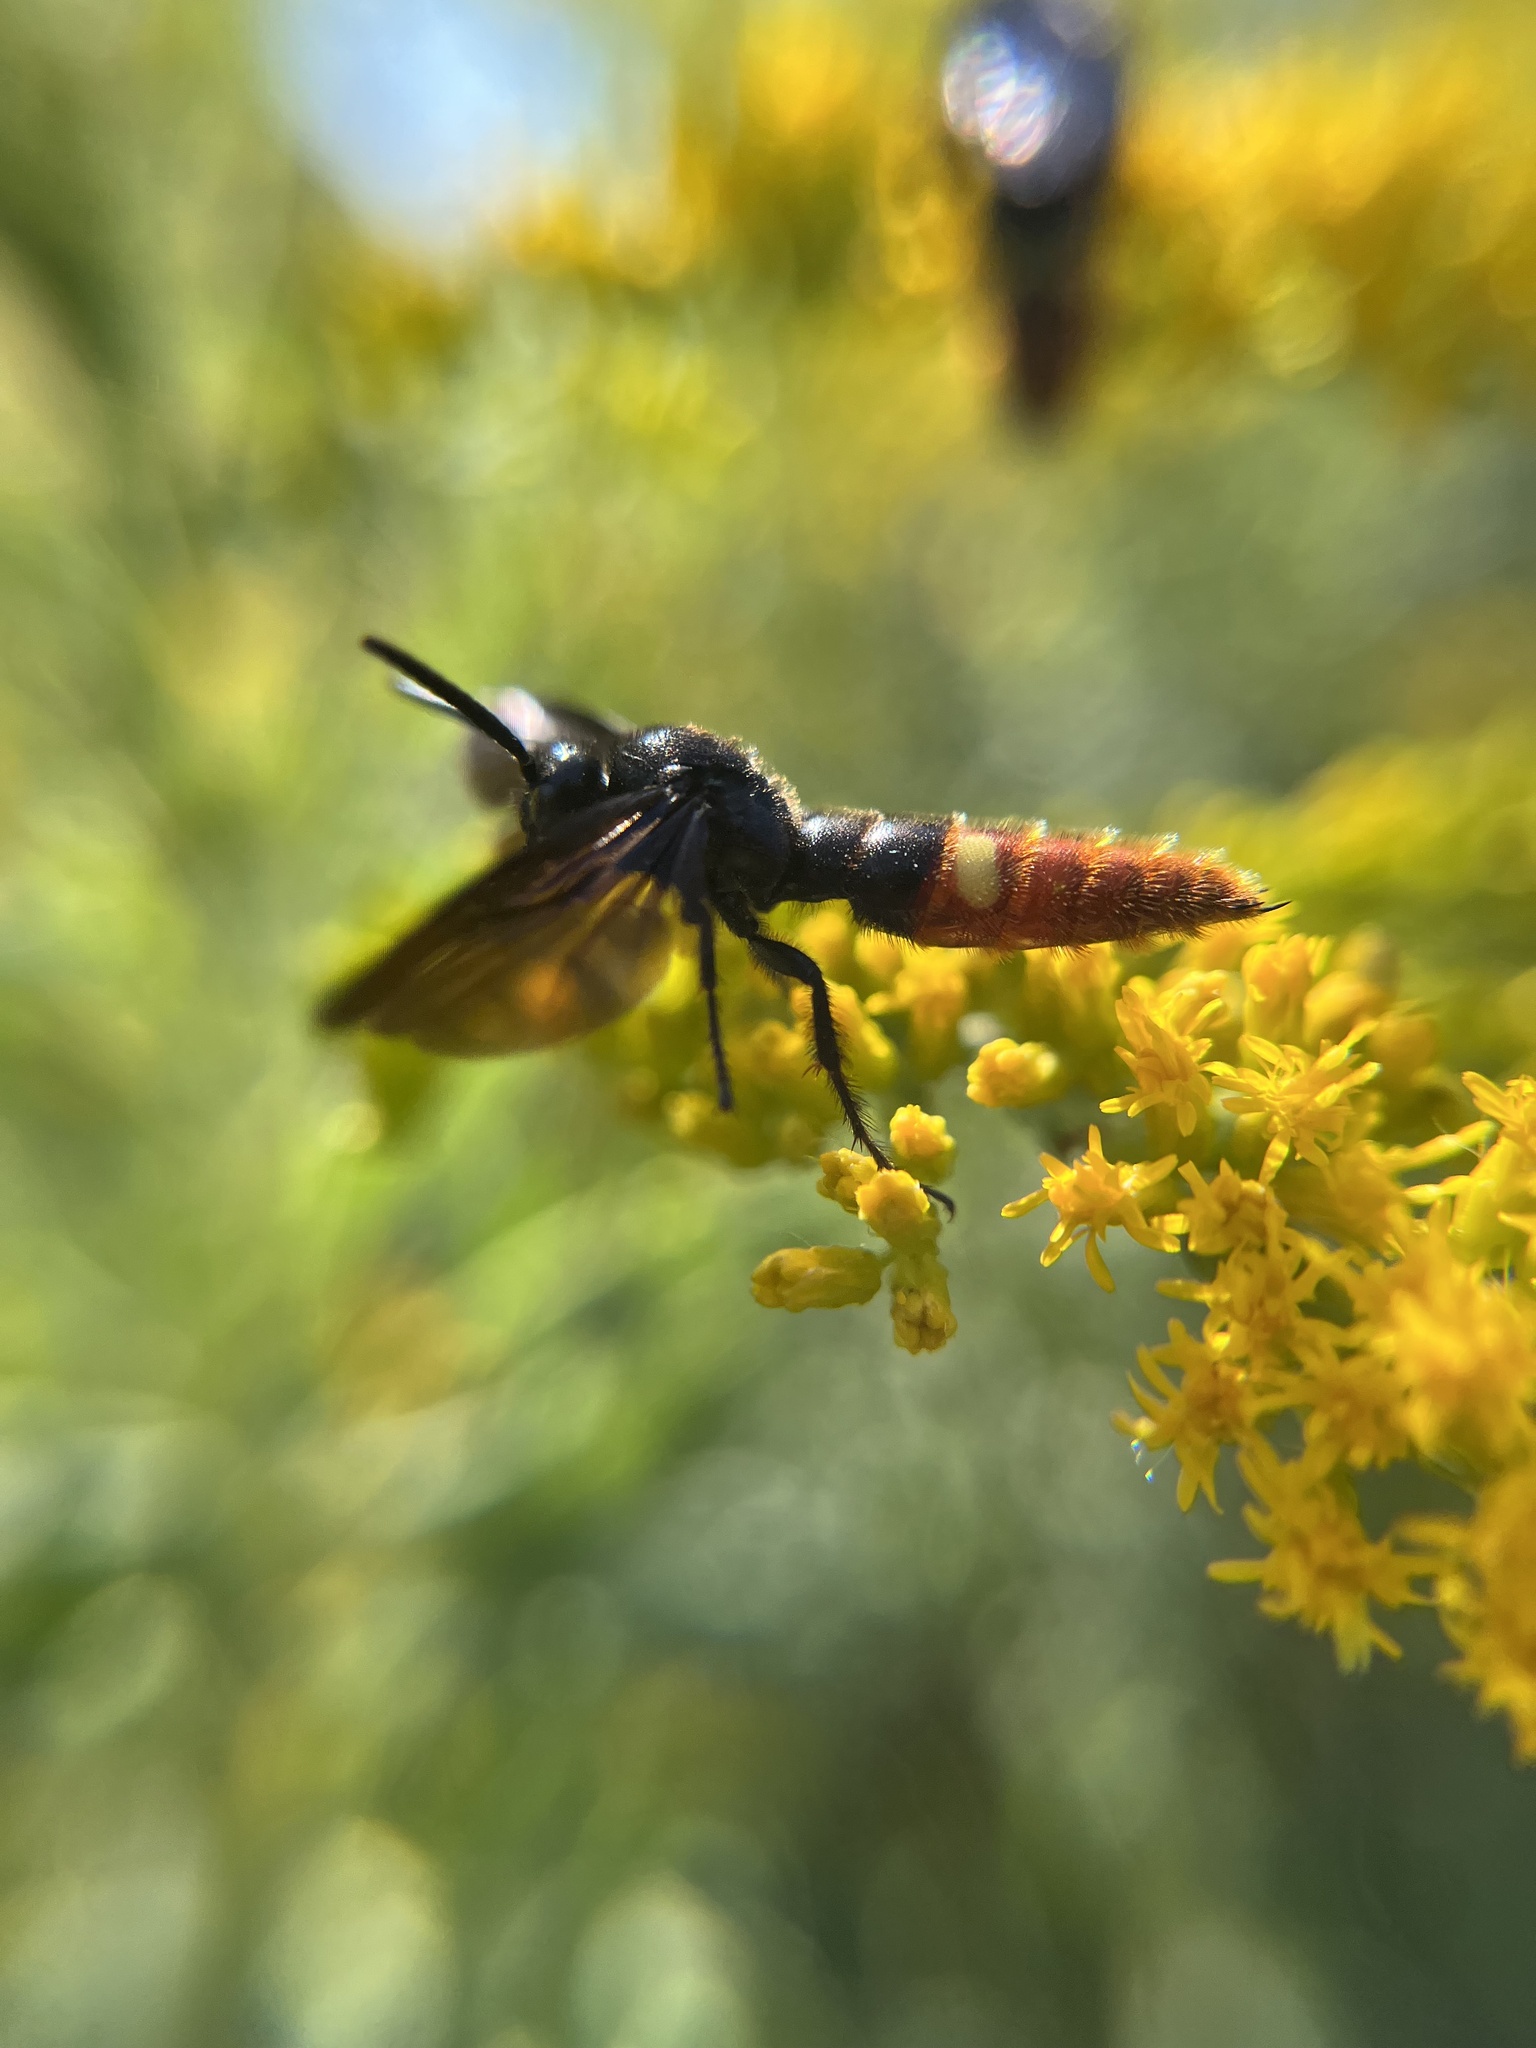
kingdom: Animalia
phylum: Arthropoda
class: Insecta
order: Hymenoptera
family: Scoliidae
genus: Scolia
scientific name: Scolia dubia
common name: Blue-winged scoliid wasp
